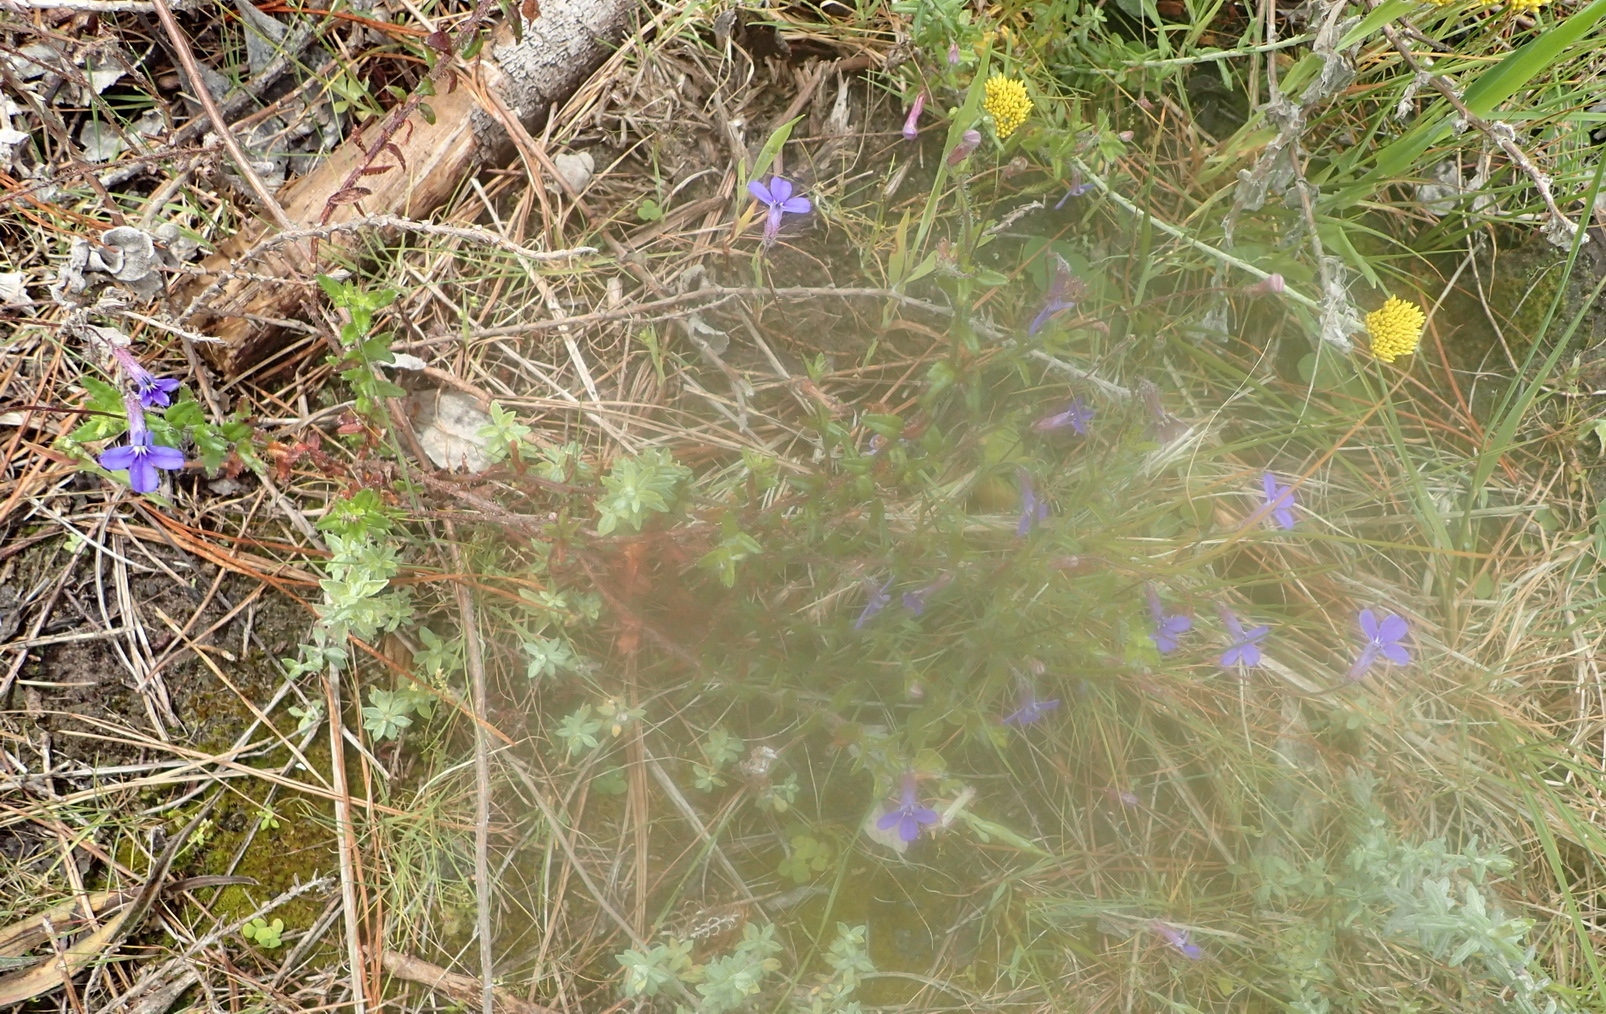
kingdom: Plantae
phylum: Tracheophyta
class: Magnoliopsida
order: Asterales
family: Campanulaceae
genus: Lobelia
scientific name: Lobelia neglecta
